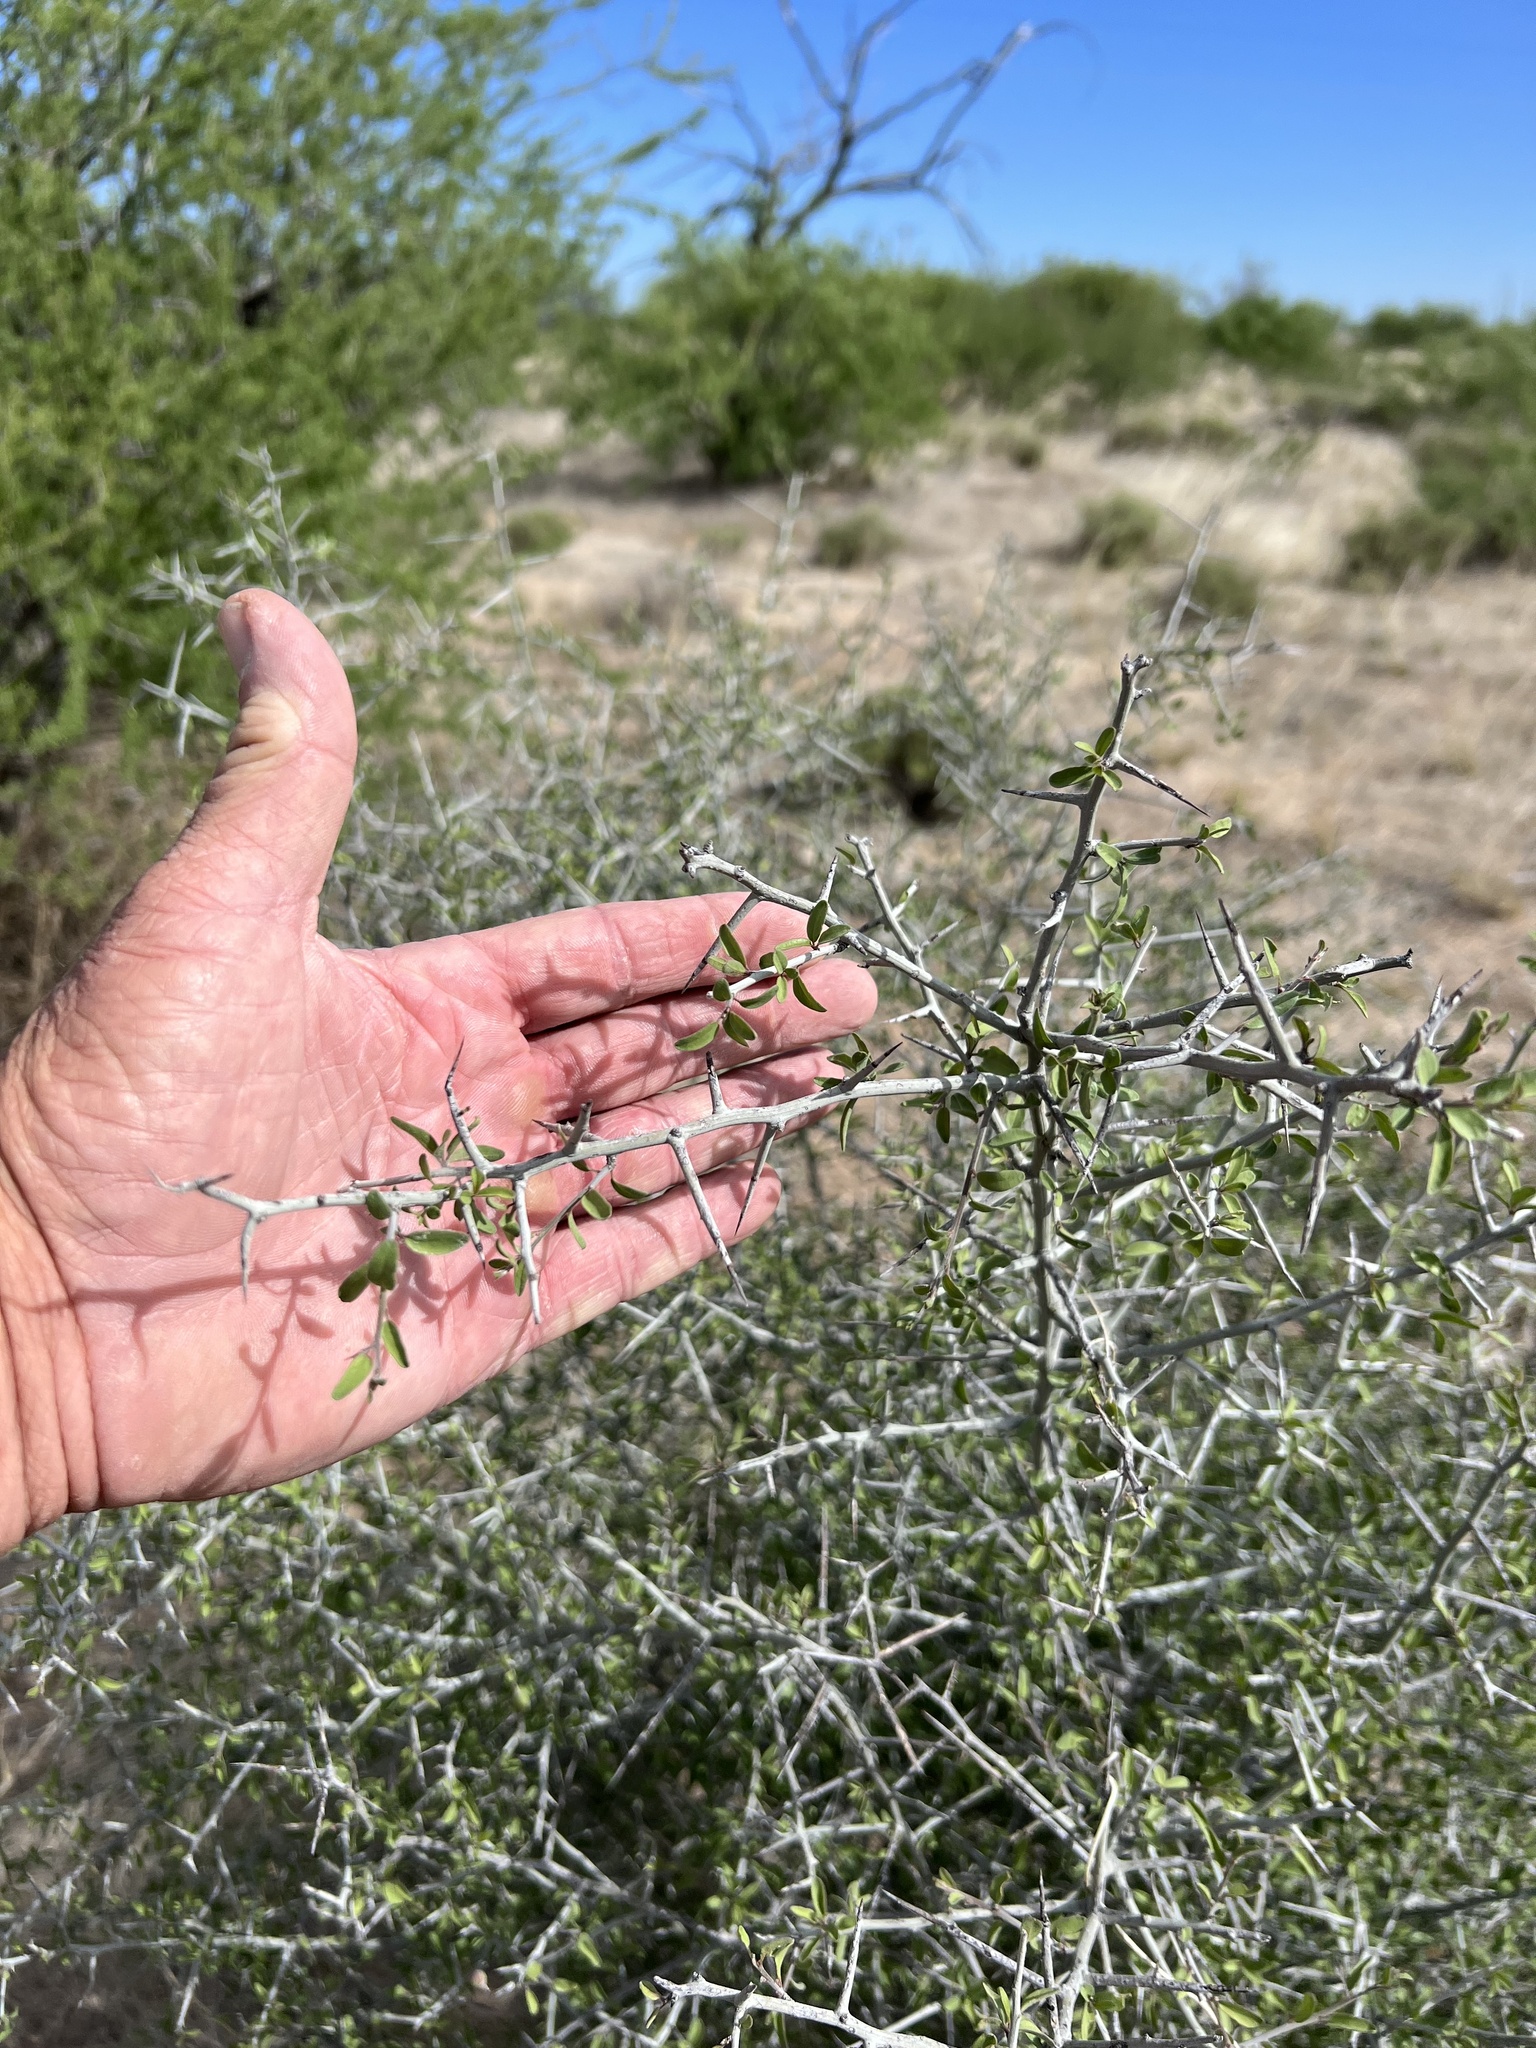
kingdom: Plantae
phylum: Tracheophyta
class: Magnoliopsida
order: Rosales
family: Rhamnaceae
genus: Sarcomphalus
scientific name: Sarcomphalus obtusifolius
